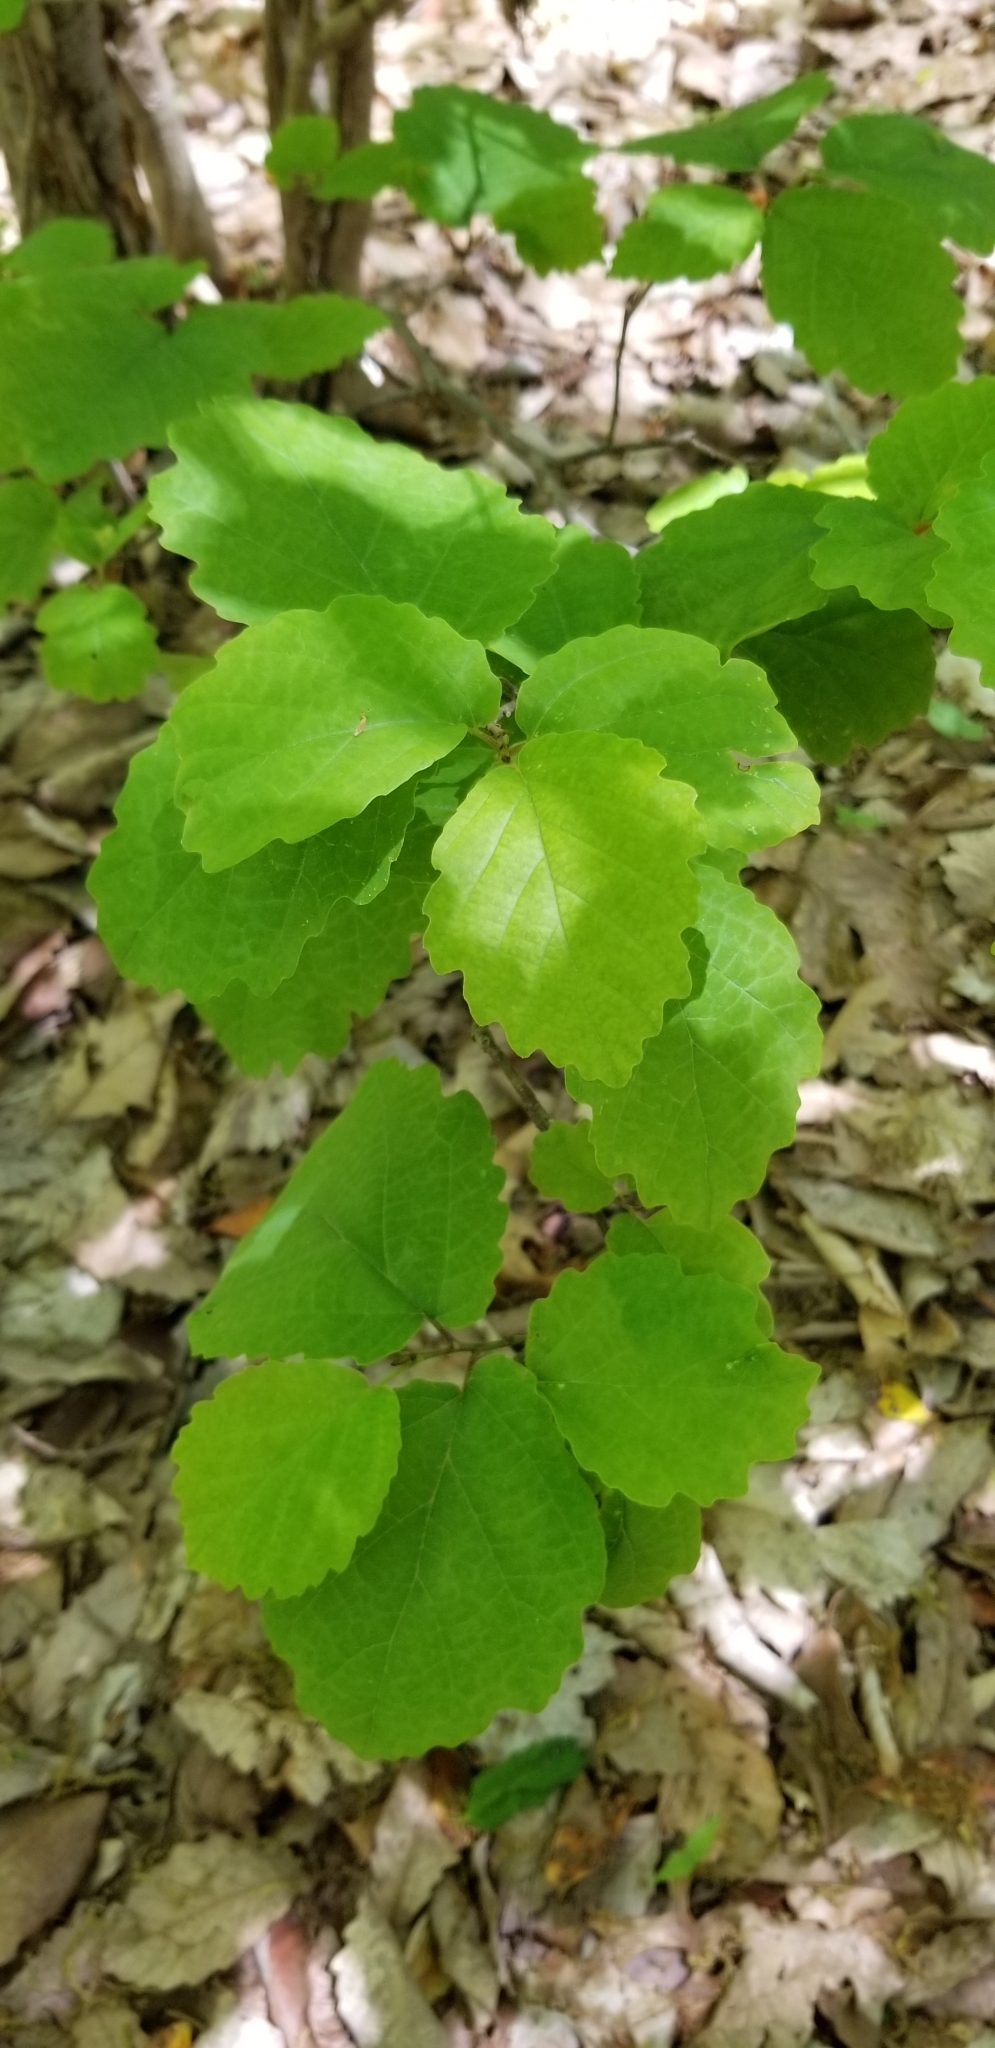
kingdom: Plantae
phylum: Tracheophyta
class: Magnoliopsida
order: Saxifragales
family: Hamamelidaceae
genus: Hamamelis
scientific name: Hamamelis virginiana
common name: Witch-hazel
